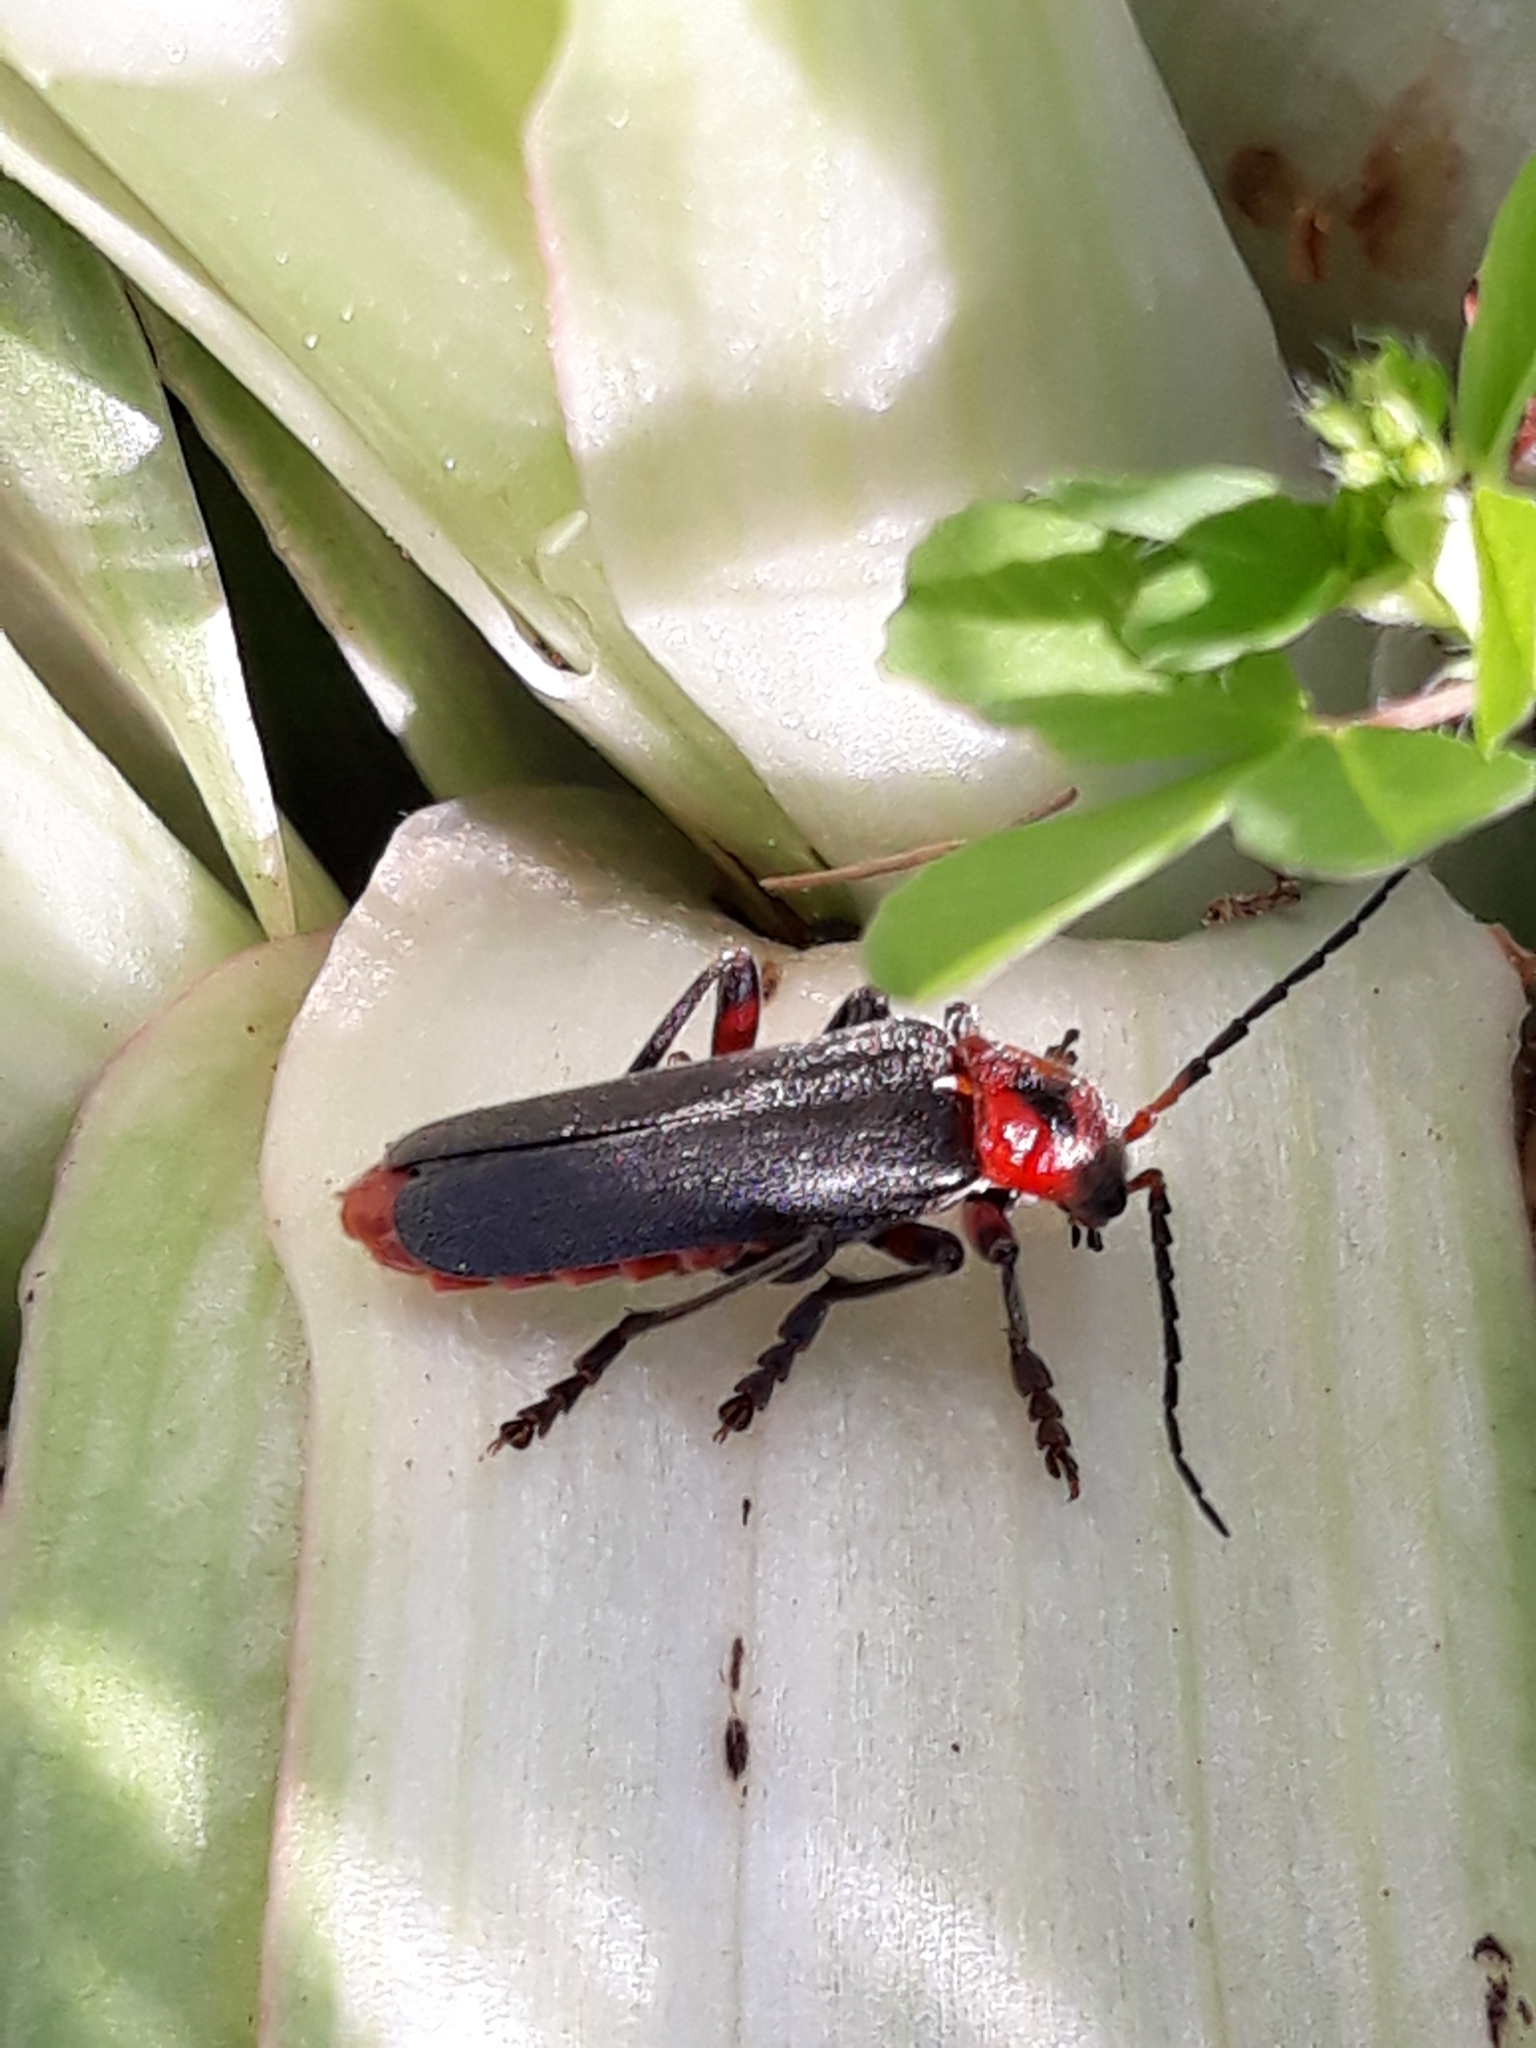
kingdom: Animalia
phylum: Arthropoda
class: Insecta
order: Coleoptera
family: Cantharidae
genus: Cantharis
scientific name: Cantharis rustica
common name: Soldier beetle
